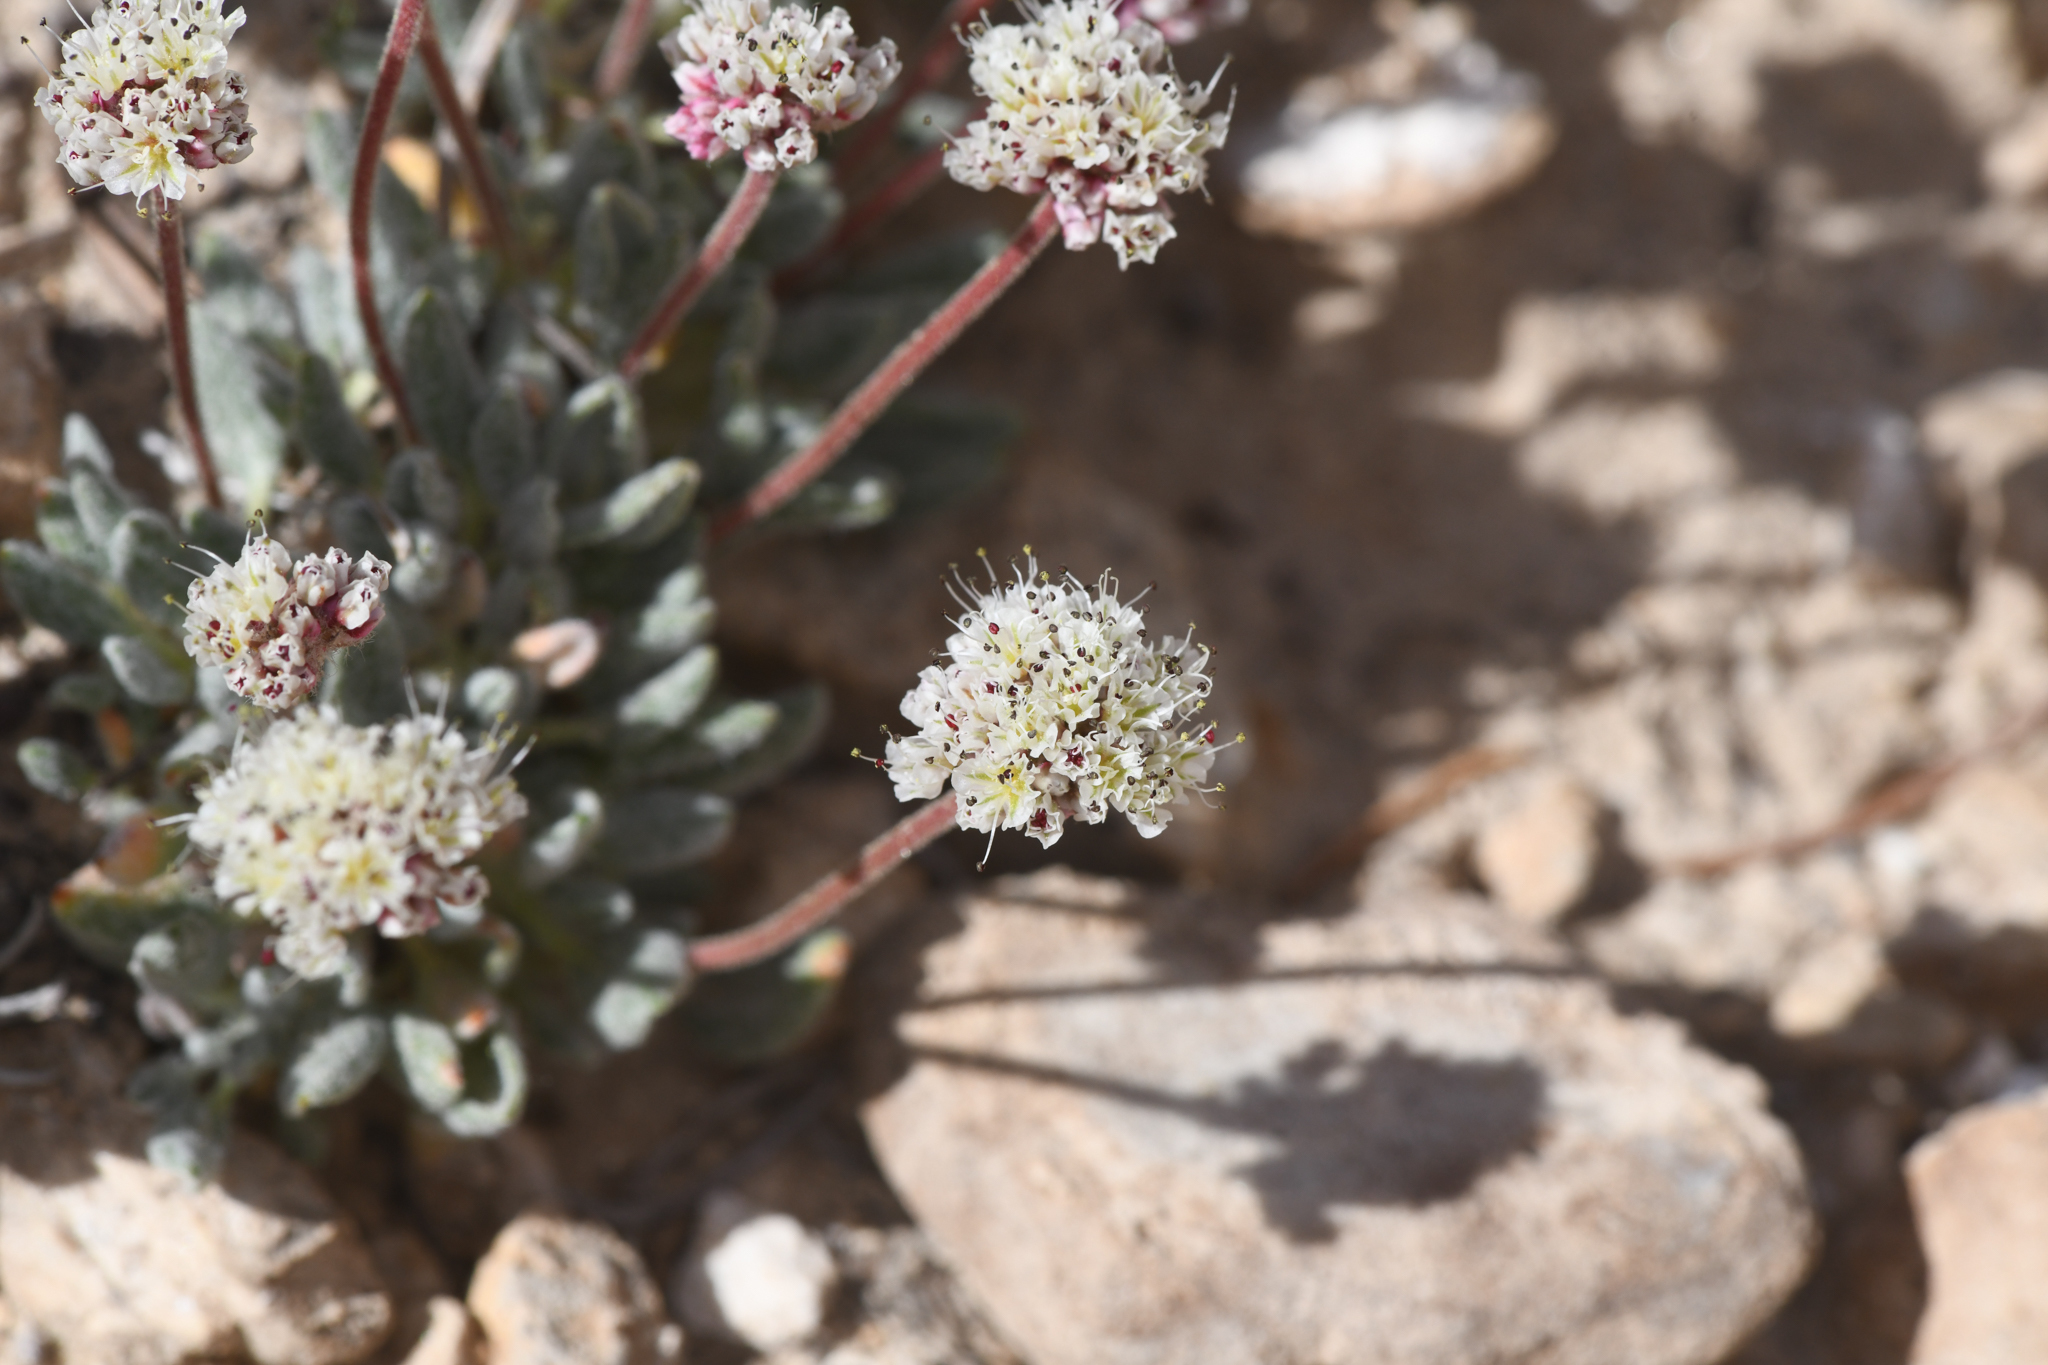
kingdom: Plantae
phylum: Tracheophyta
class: Magnoliopsida
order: Caryophyllales
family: Polygonaceae
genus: Eriogonum
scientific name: Eriogonum gracilipes
